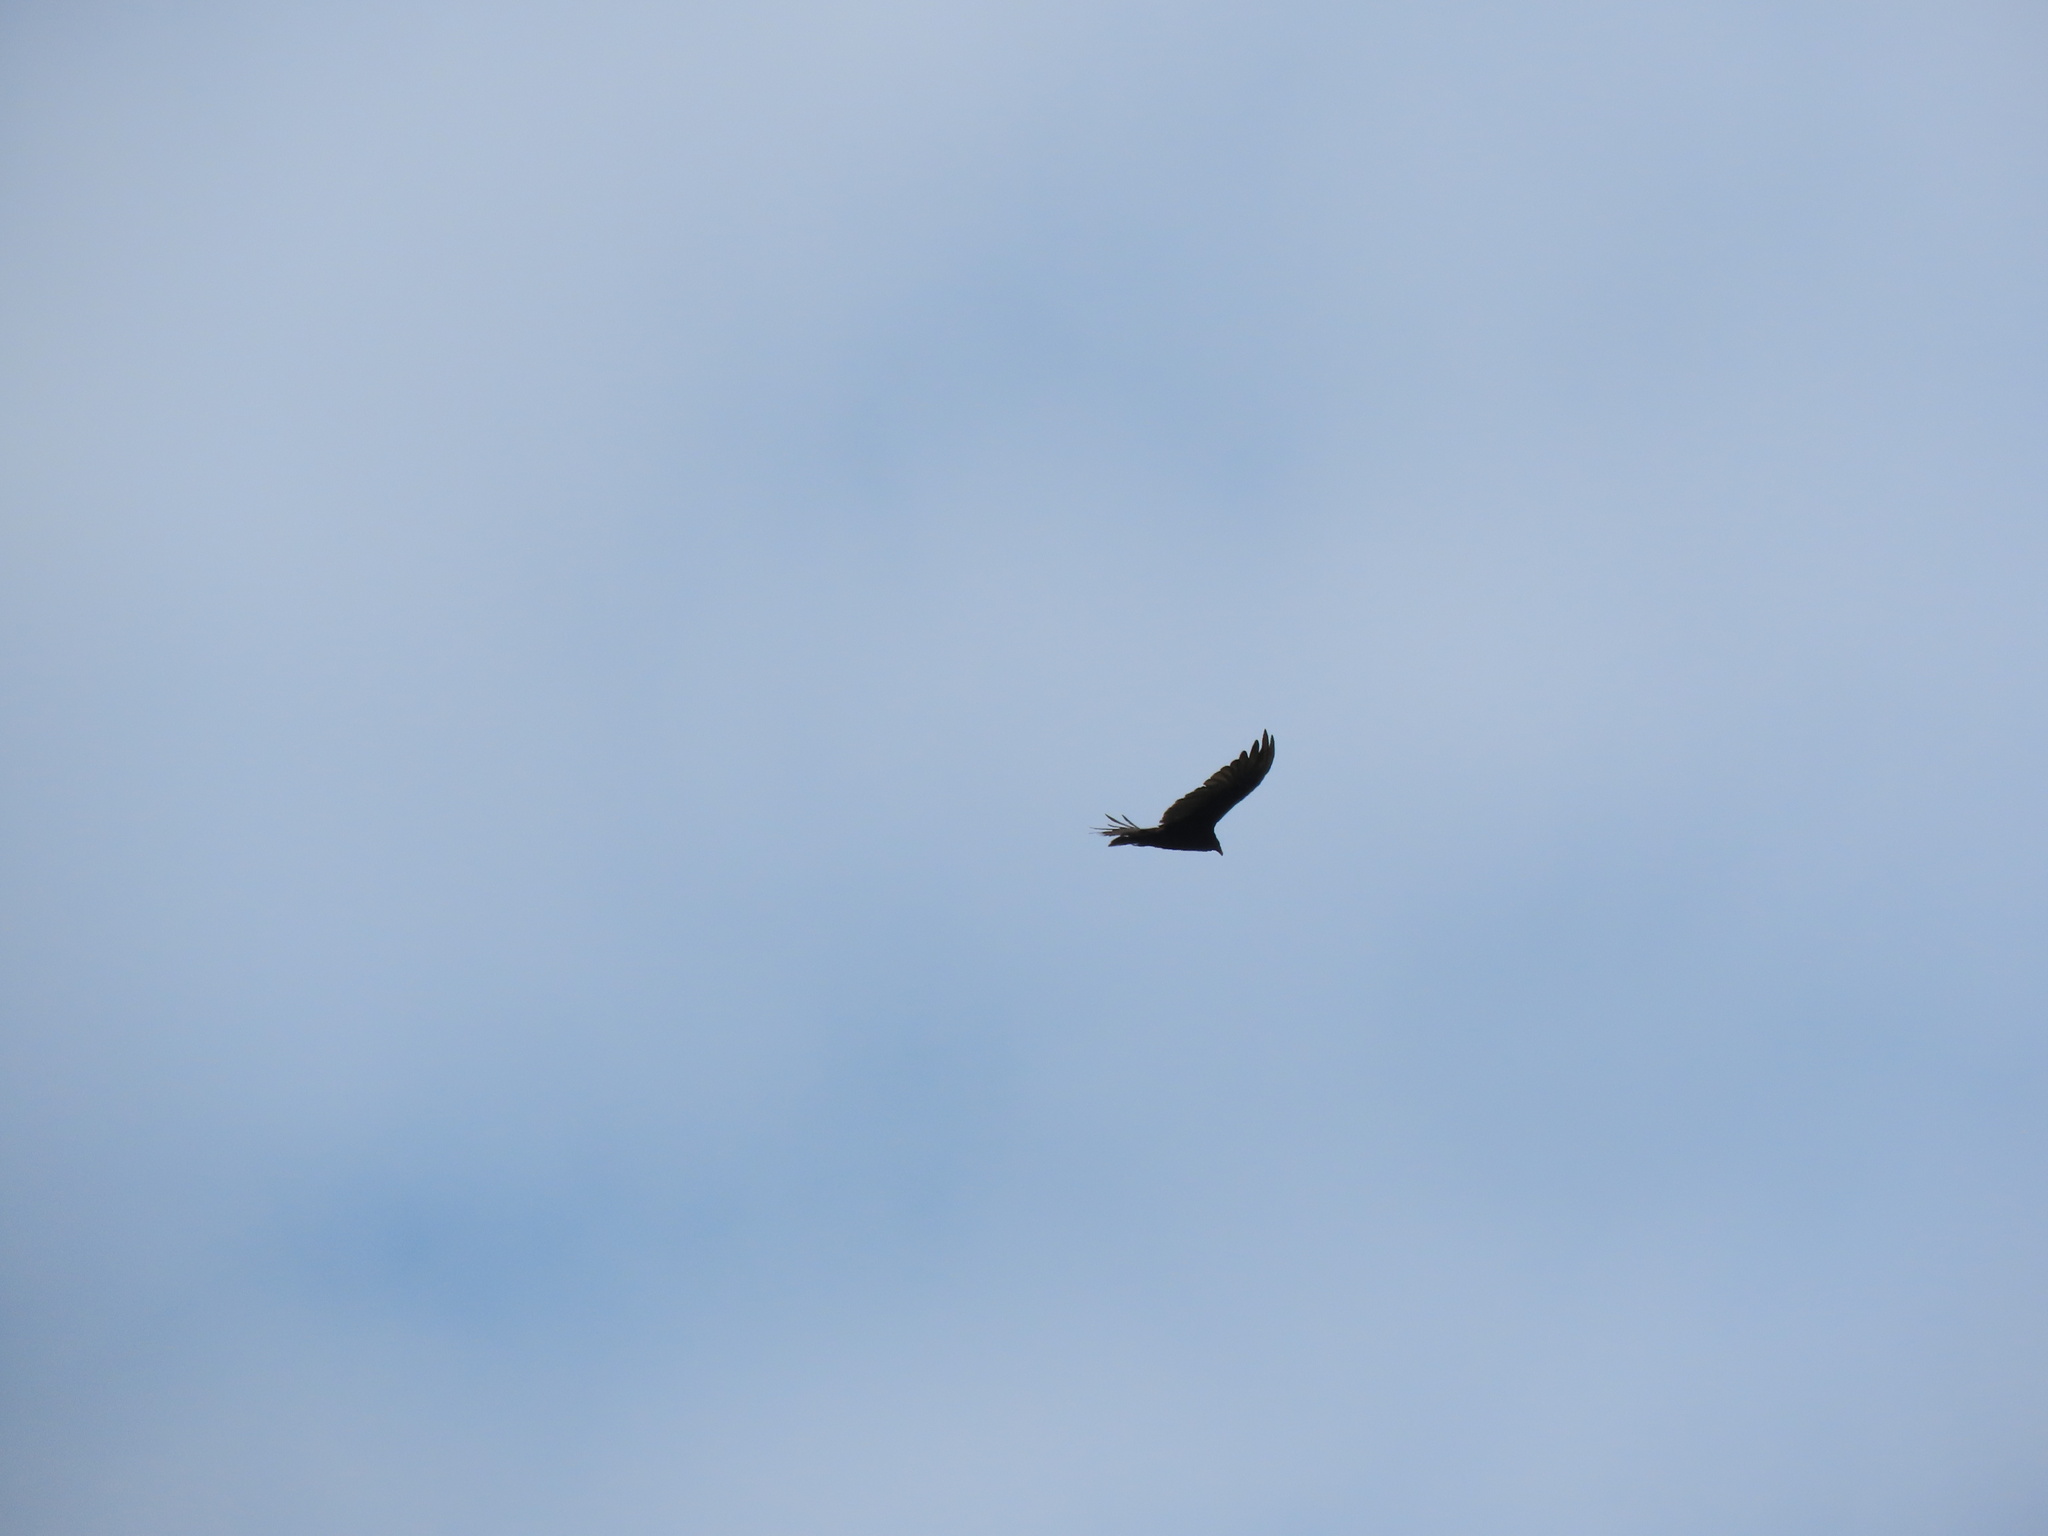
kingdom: Animalia
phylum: Chordata
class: Aves
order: Accipitriformes
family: Cathartidae
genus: Cathartes
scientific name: Cathartes aura
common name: Turkey vulture
